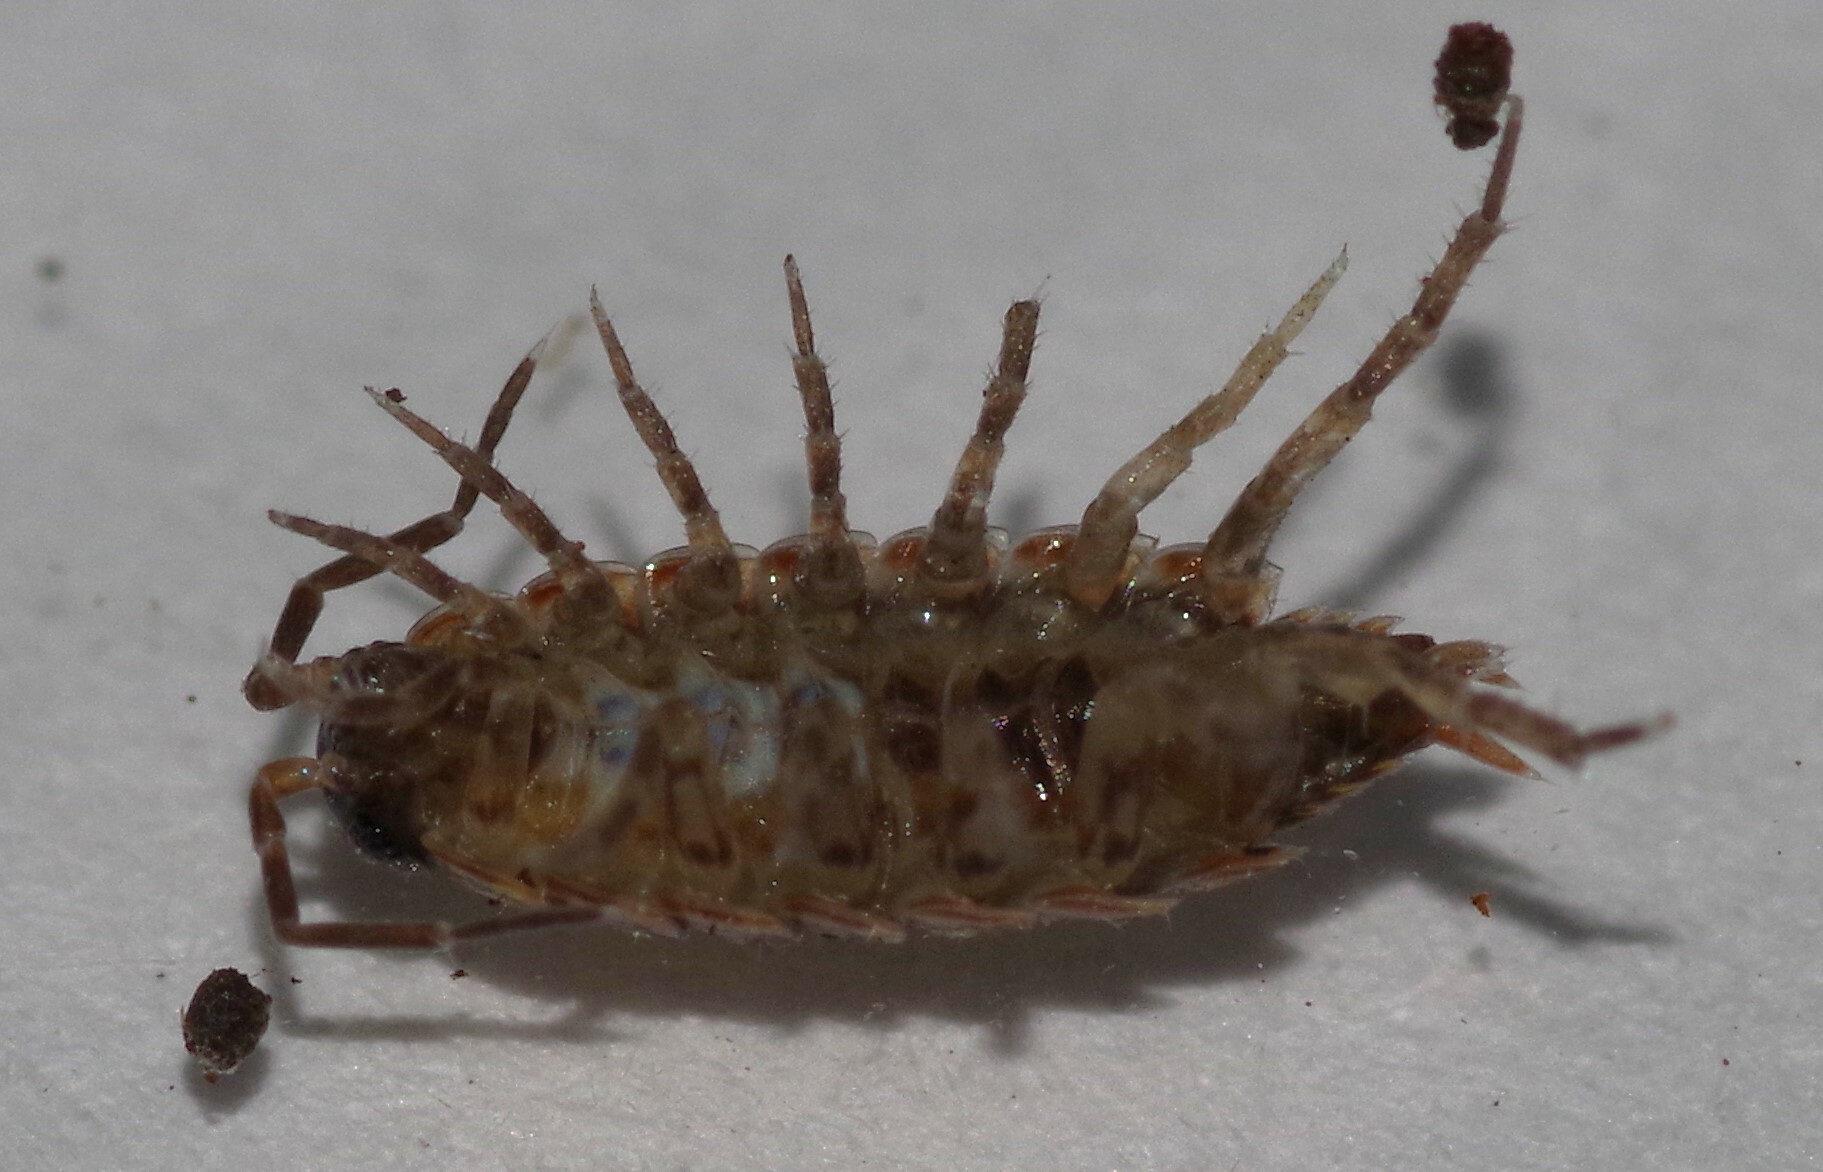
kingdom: Animalia
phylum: Arthropoda
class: Malacostraca
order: Isopoda
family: Philosciidae
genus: Philoscia
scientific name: Philoscia muscorum
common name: Common striped woodlouse
